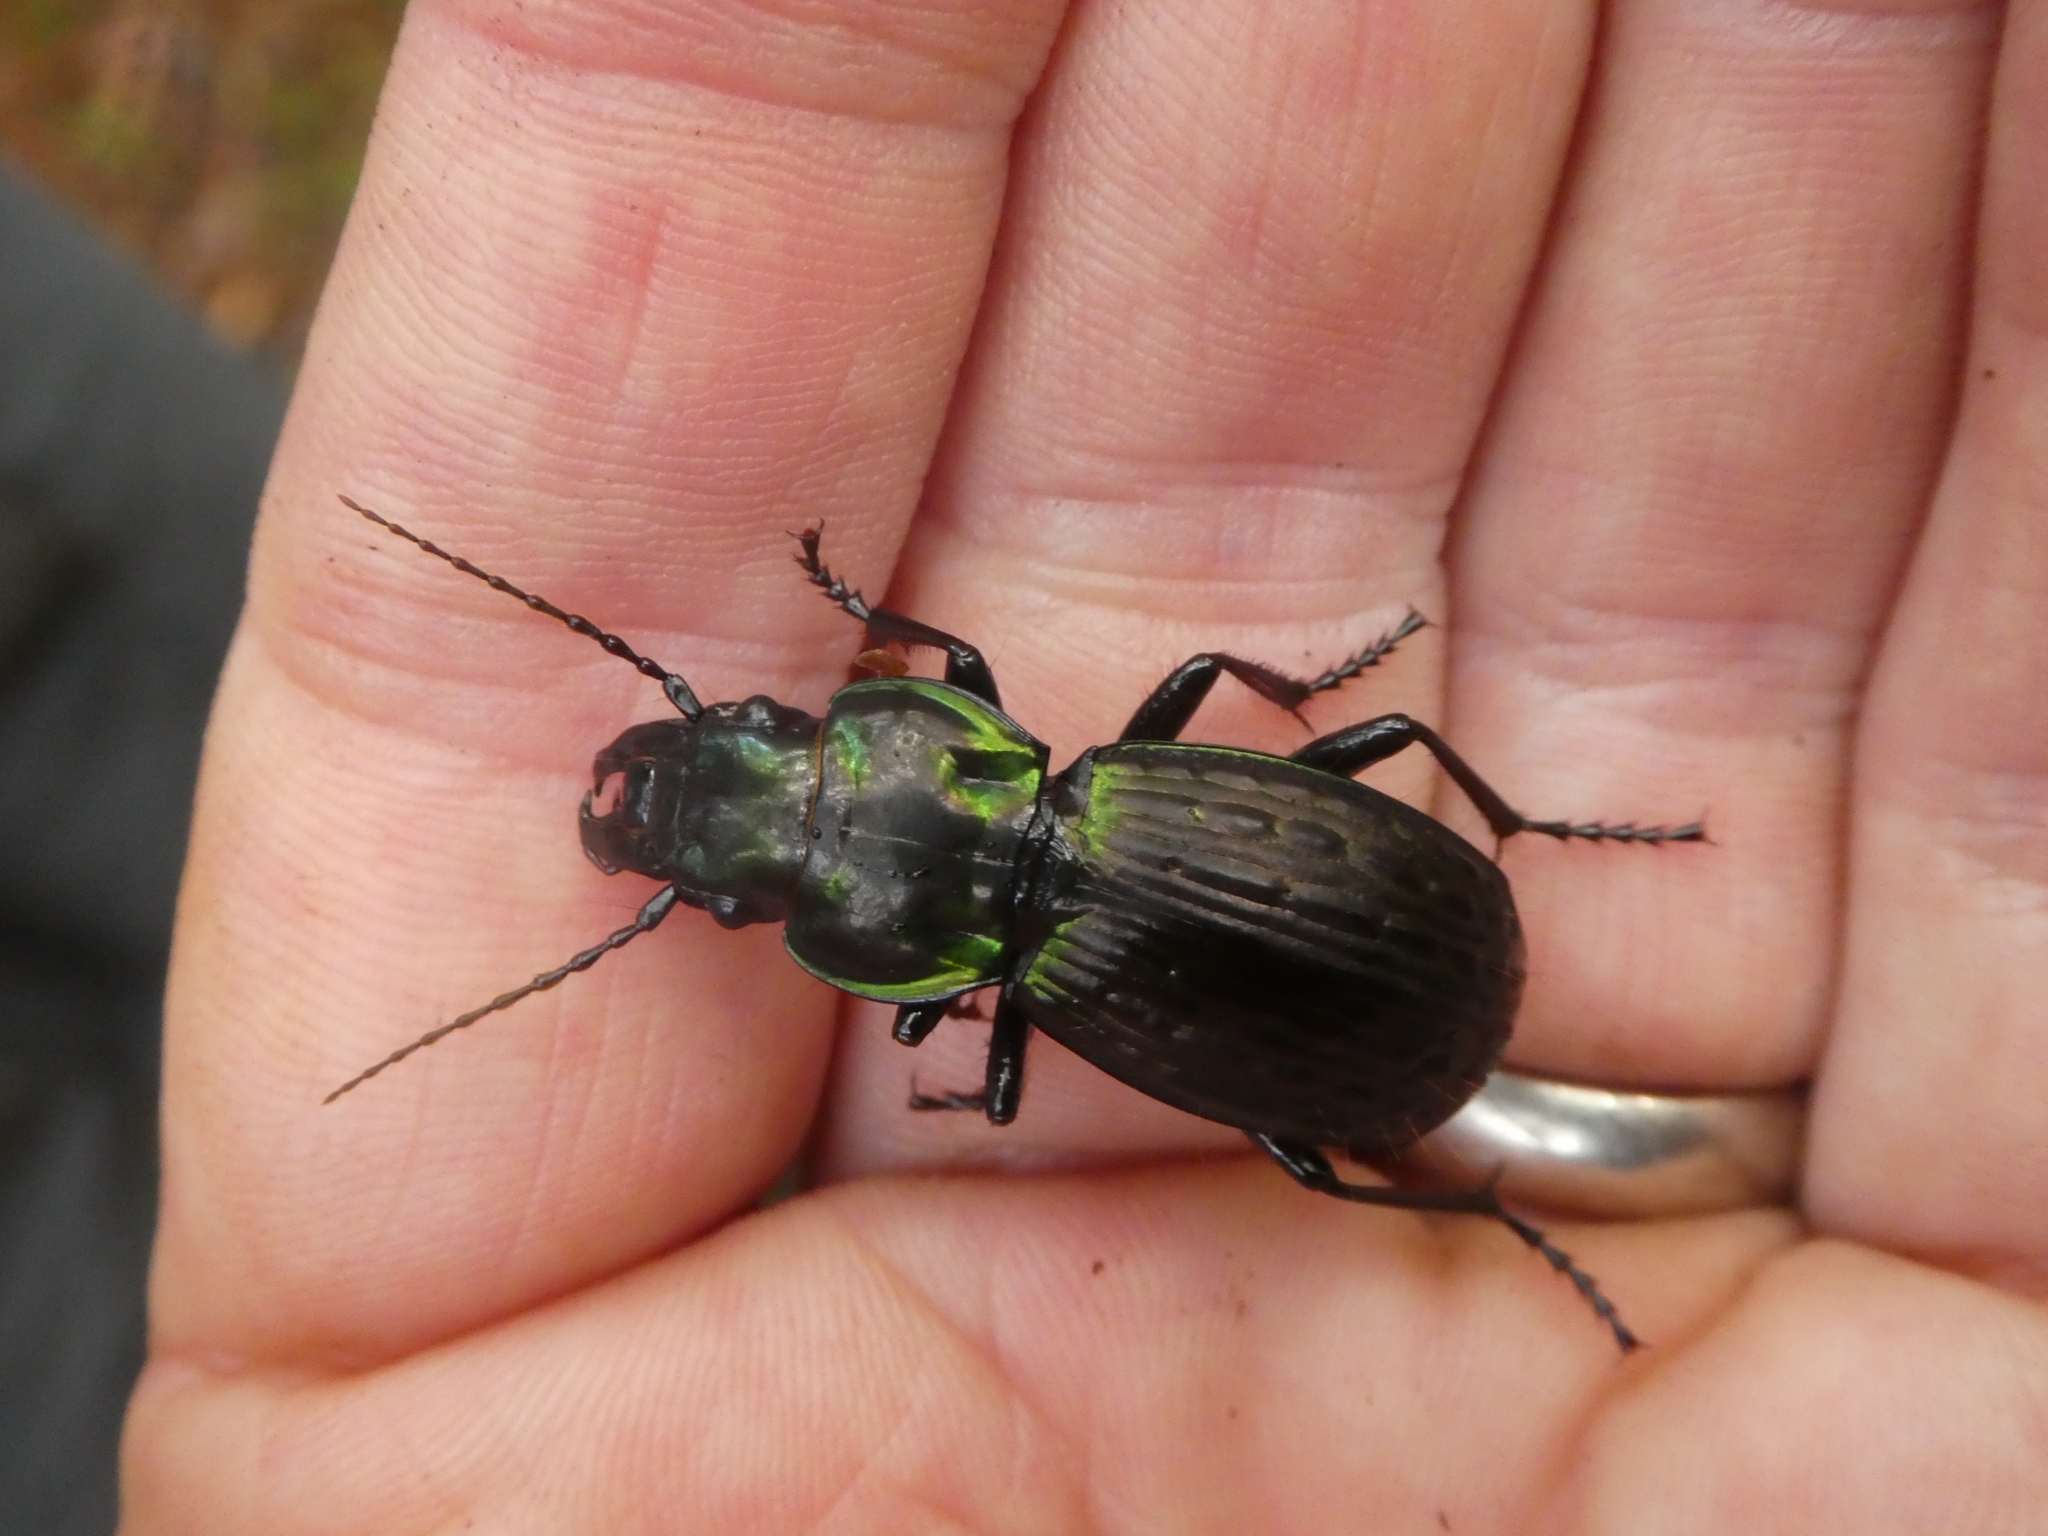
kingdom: Animalia
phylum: Arthropoda
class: Insecta
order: Coleoptera
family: Carabidae
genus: Megadromus
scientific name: Megadromus bullatus
